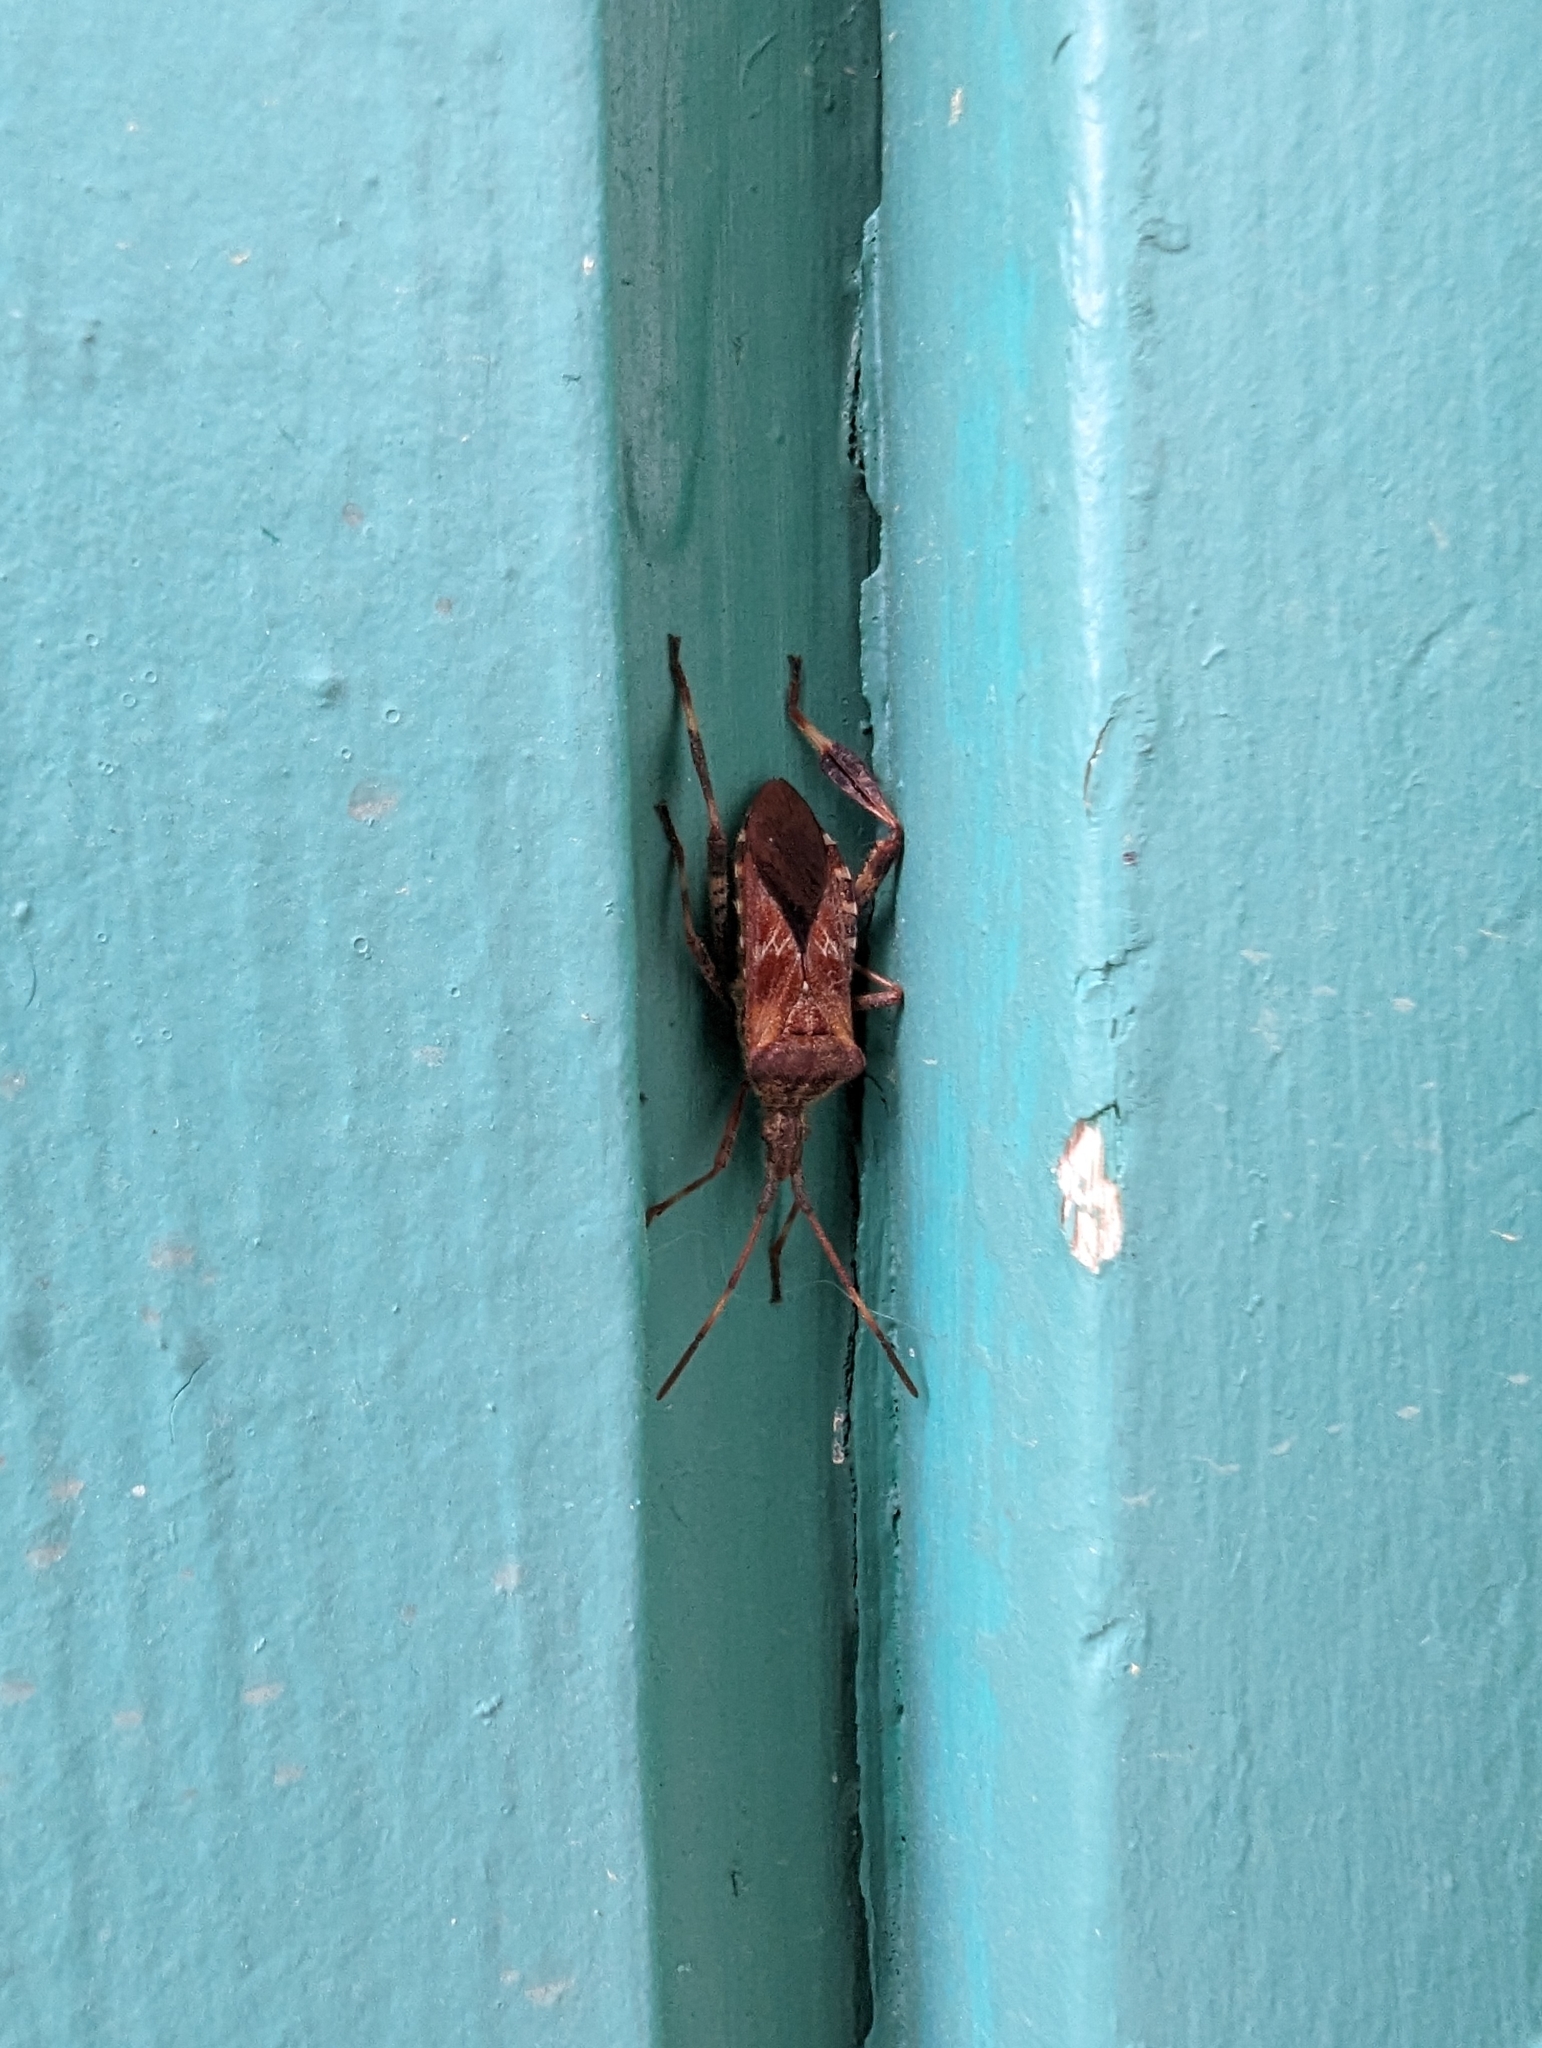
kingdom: Animalia
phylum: Arthropoda
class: Insecta
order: Hemiptera
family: Coreidae
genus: Leptoglossus
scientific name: Leptoglossus occidentalis
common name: Western conifer-seed bug
